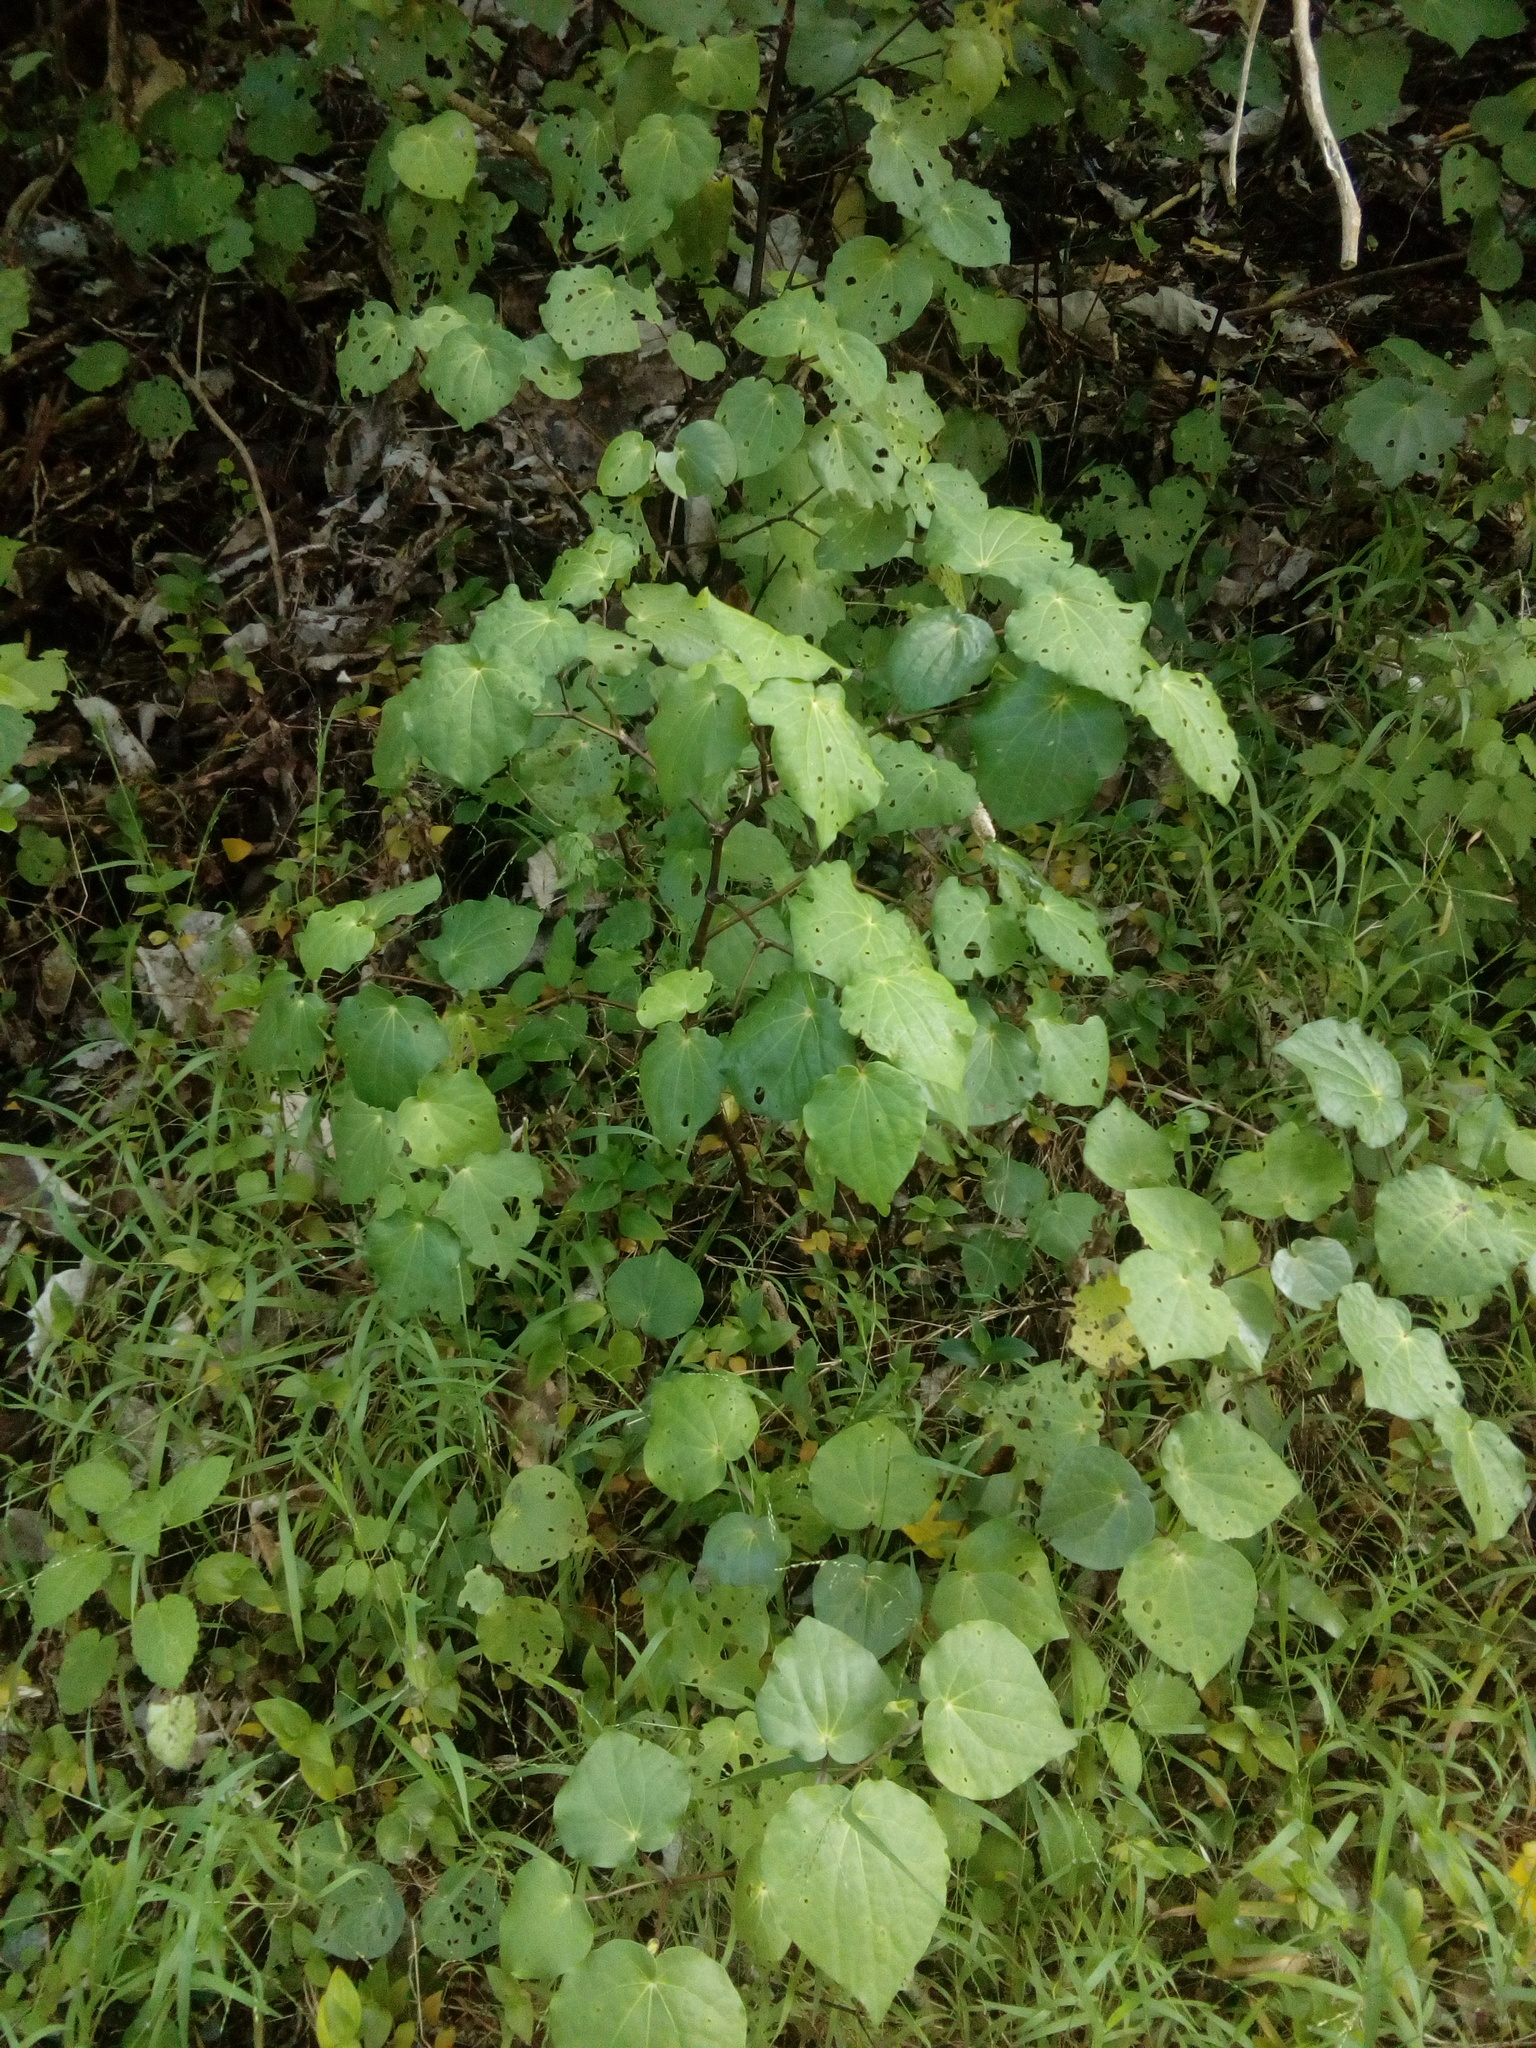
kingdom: Plantae
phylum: Tracheophyta
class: Magnoliopsida
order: Piperales
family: Piperaceae
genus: Macropiper
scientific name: Macropiper excelsum
